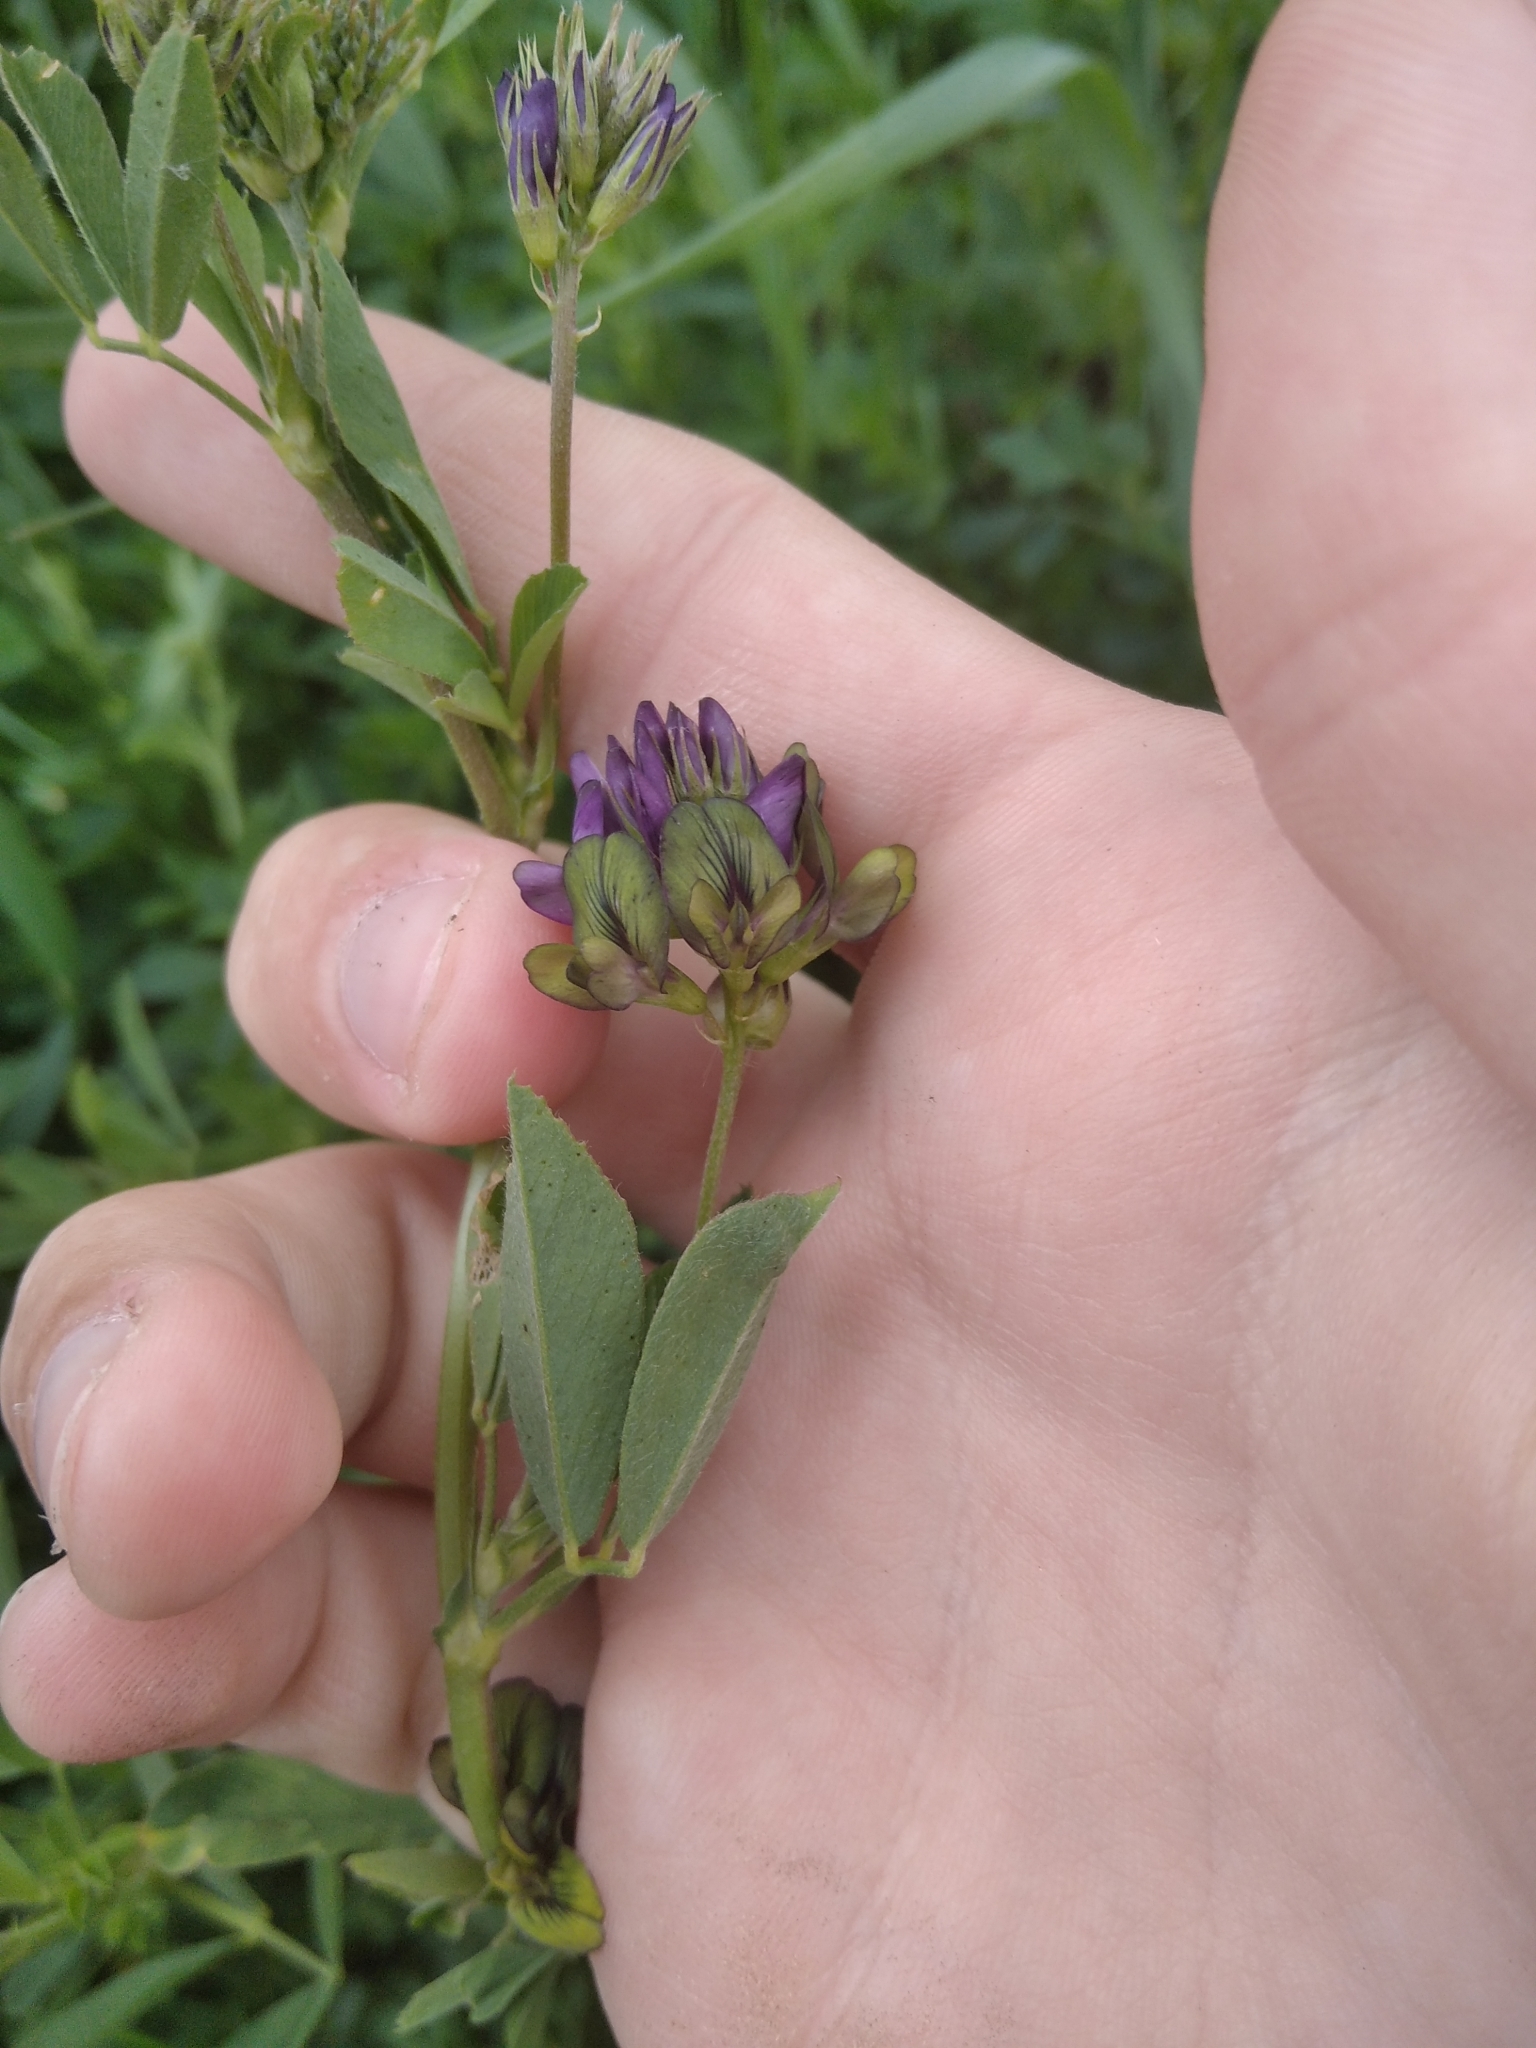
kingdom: Plantae
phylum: Tracheophyta
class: Magnoliopsida
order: Fabales
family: Fabaceae
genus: Medicago
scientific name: Medicago varia
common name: Sand lucerne
